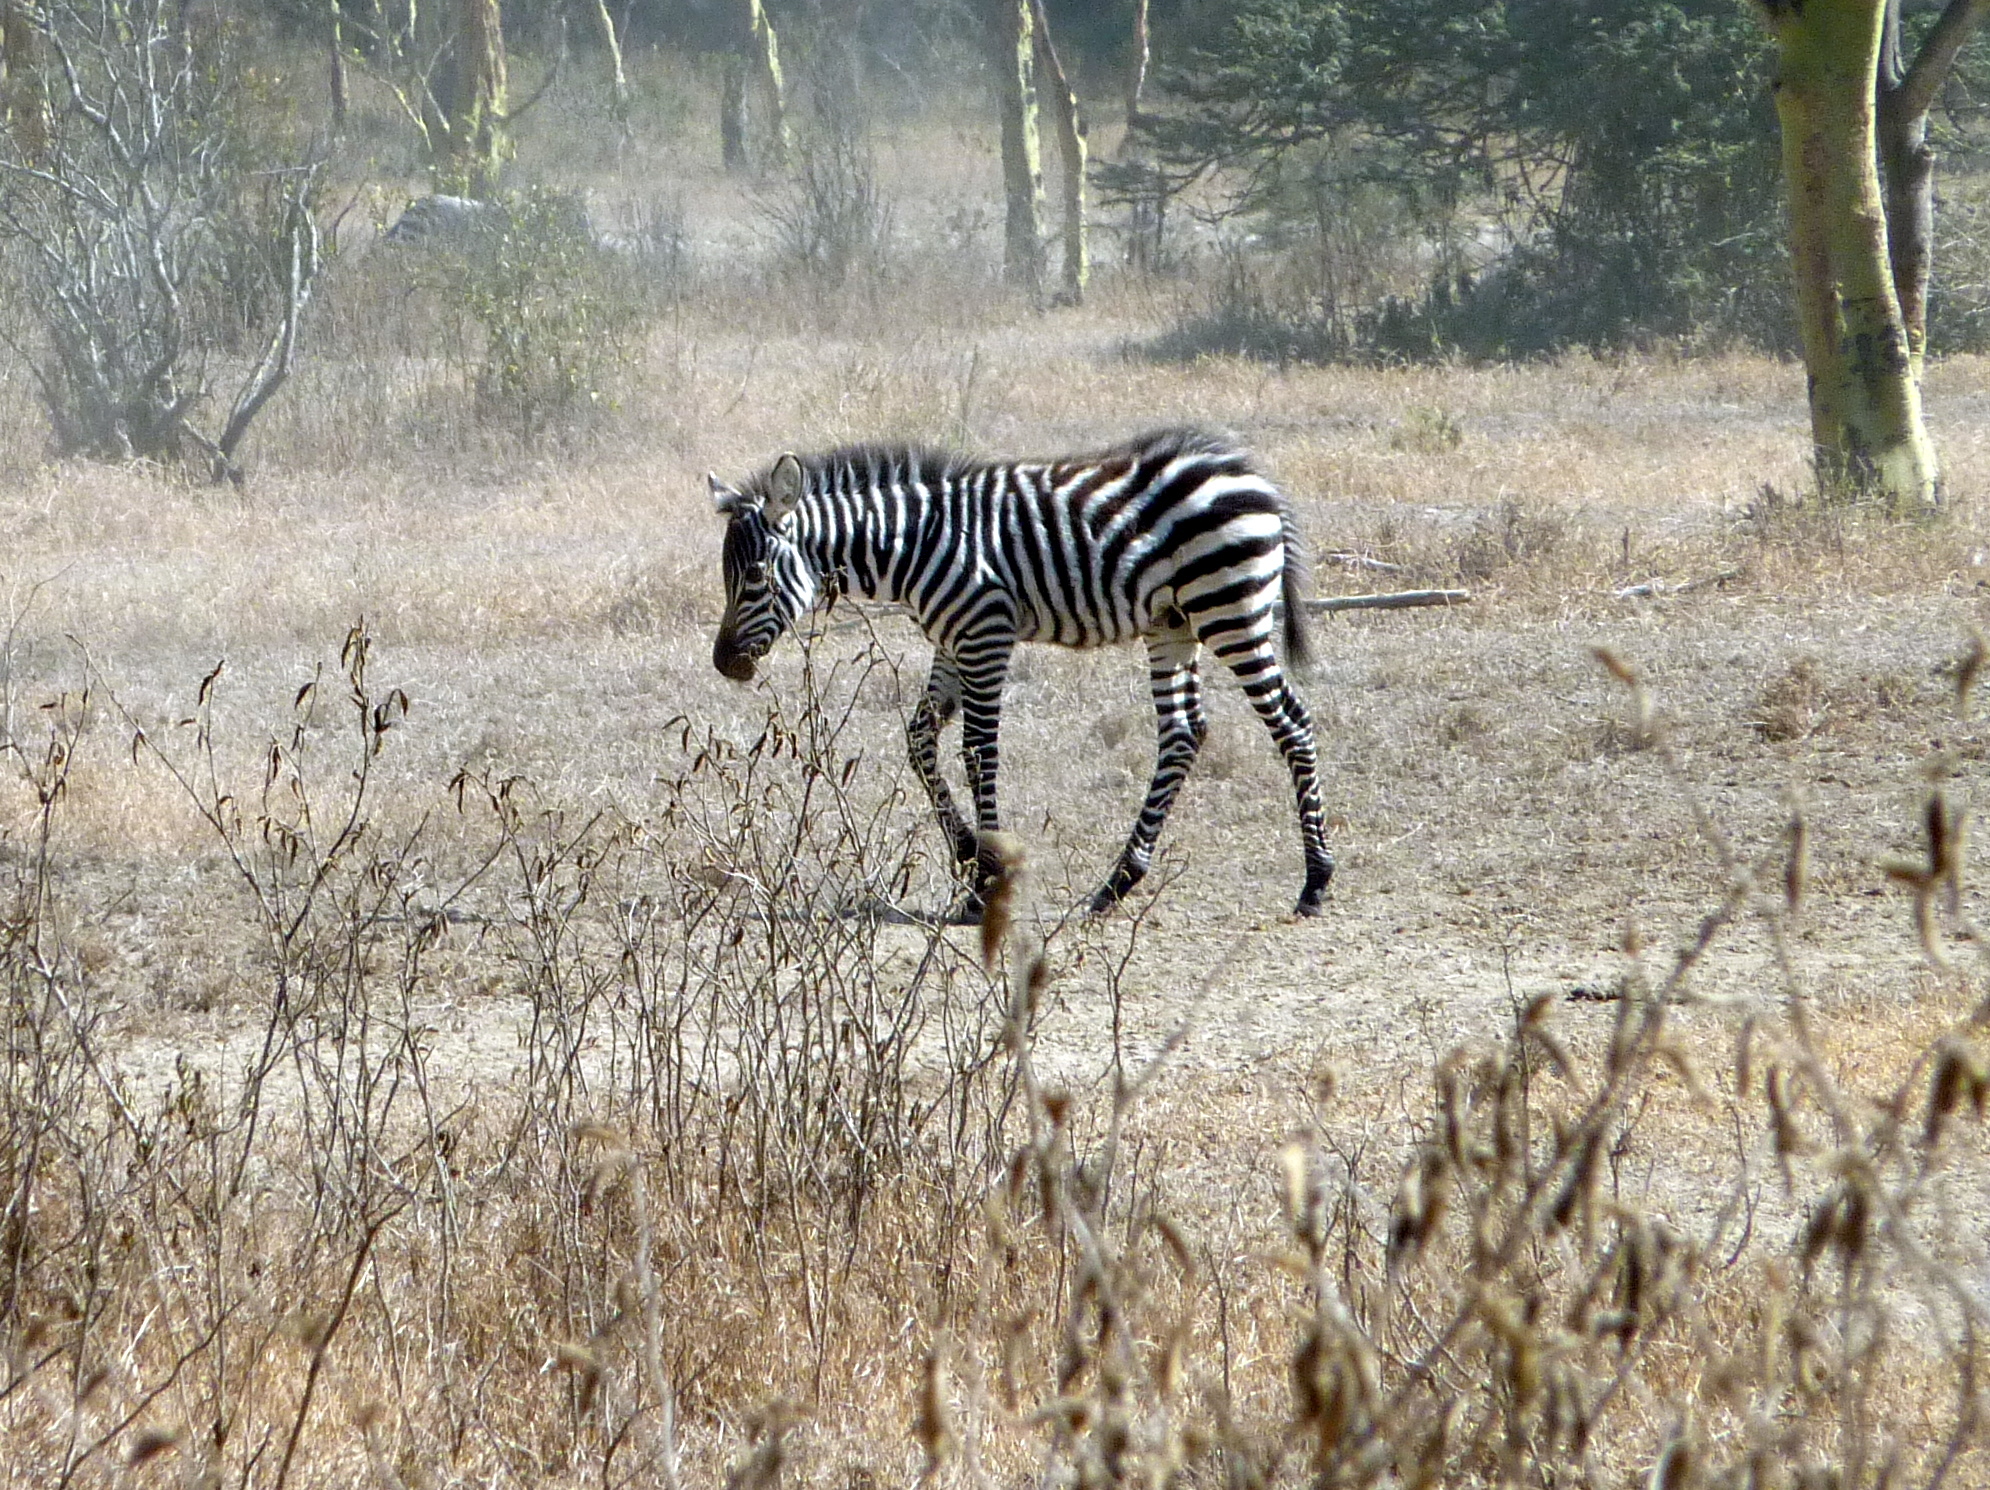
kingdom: Animalia
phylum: Chordata
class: Mammalia
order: Perissodactyla
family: Equidae
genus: Equus
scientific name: Equus quagga
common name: Plains zebra
